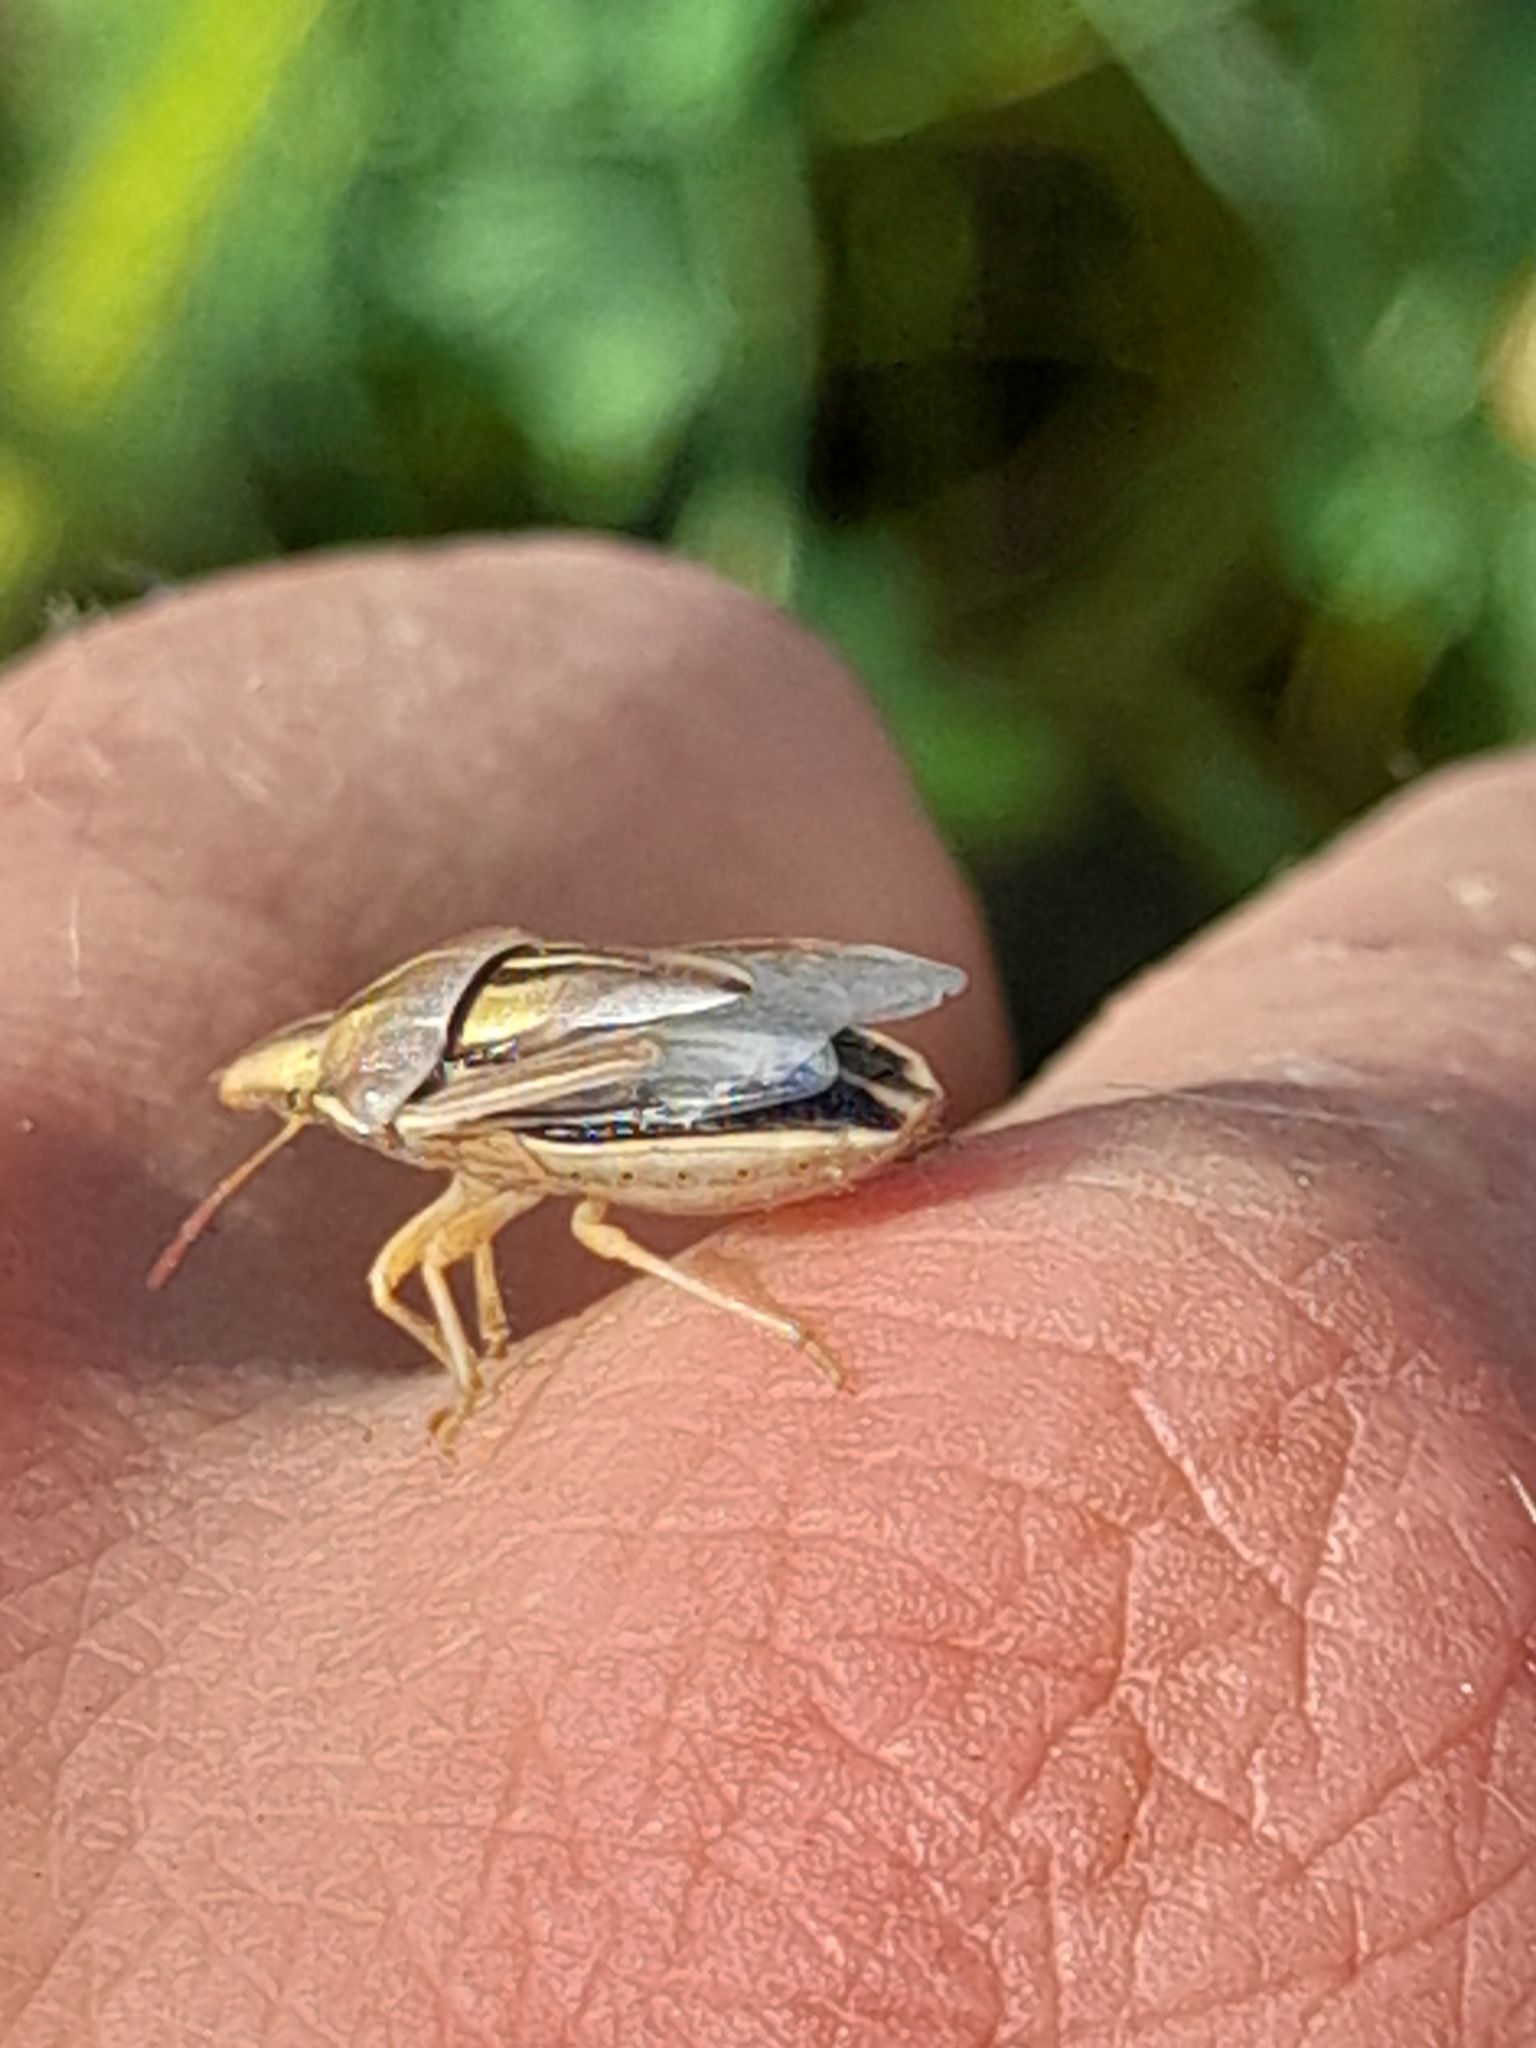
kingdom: Animalia
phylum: Arthropoda
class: Insecta
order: Hemiptera
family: Pentatomidae
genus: Aelia
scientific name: Aelia rostrata
